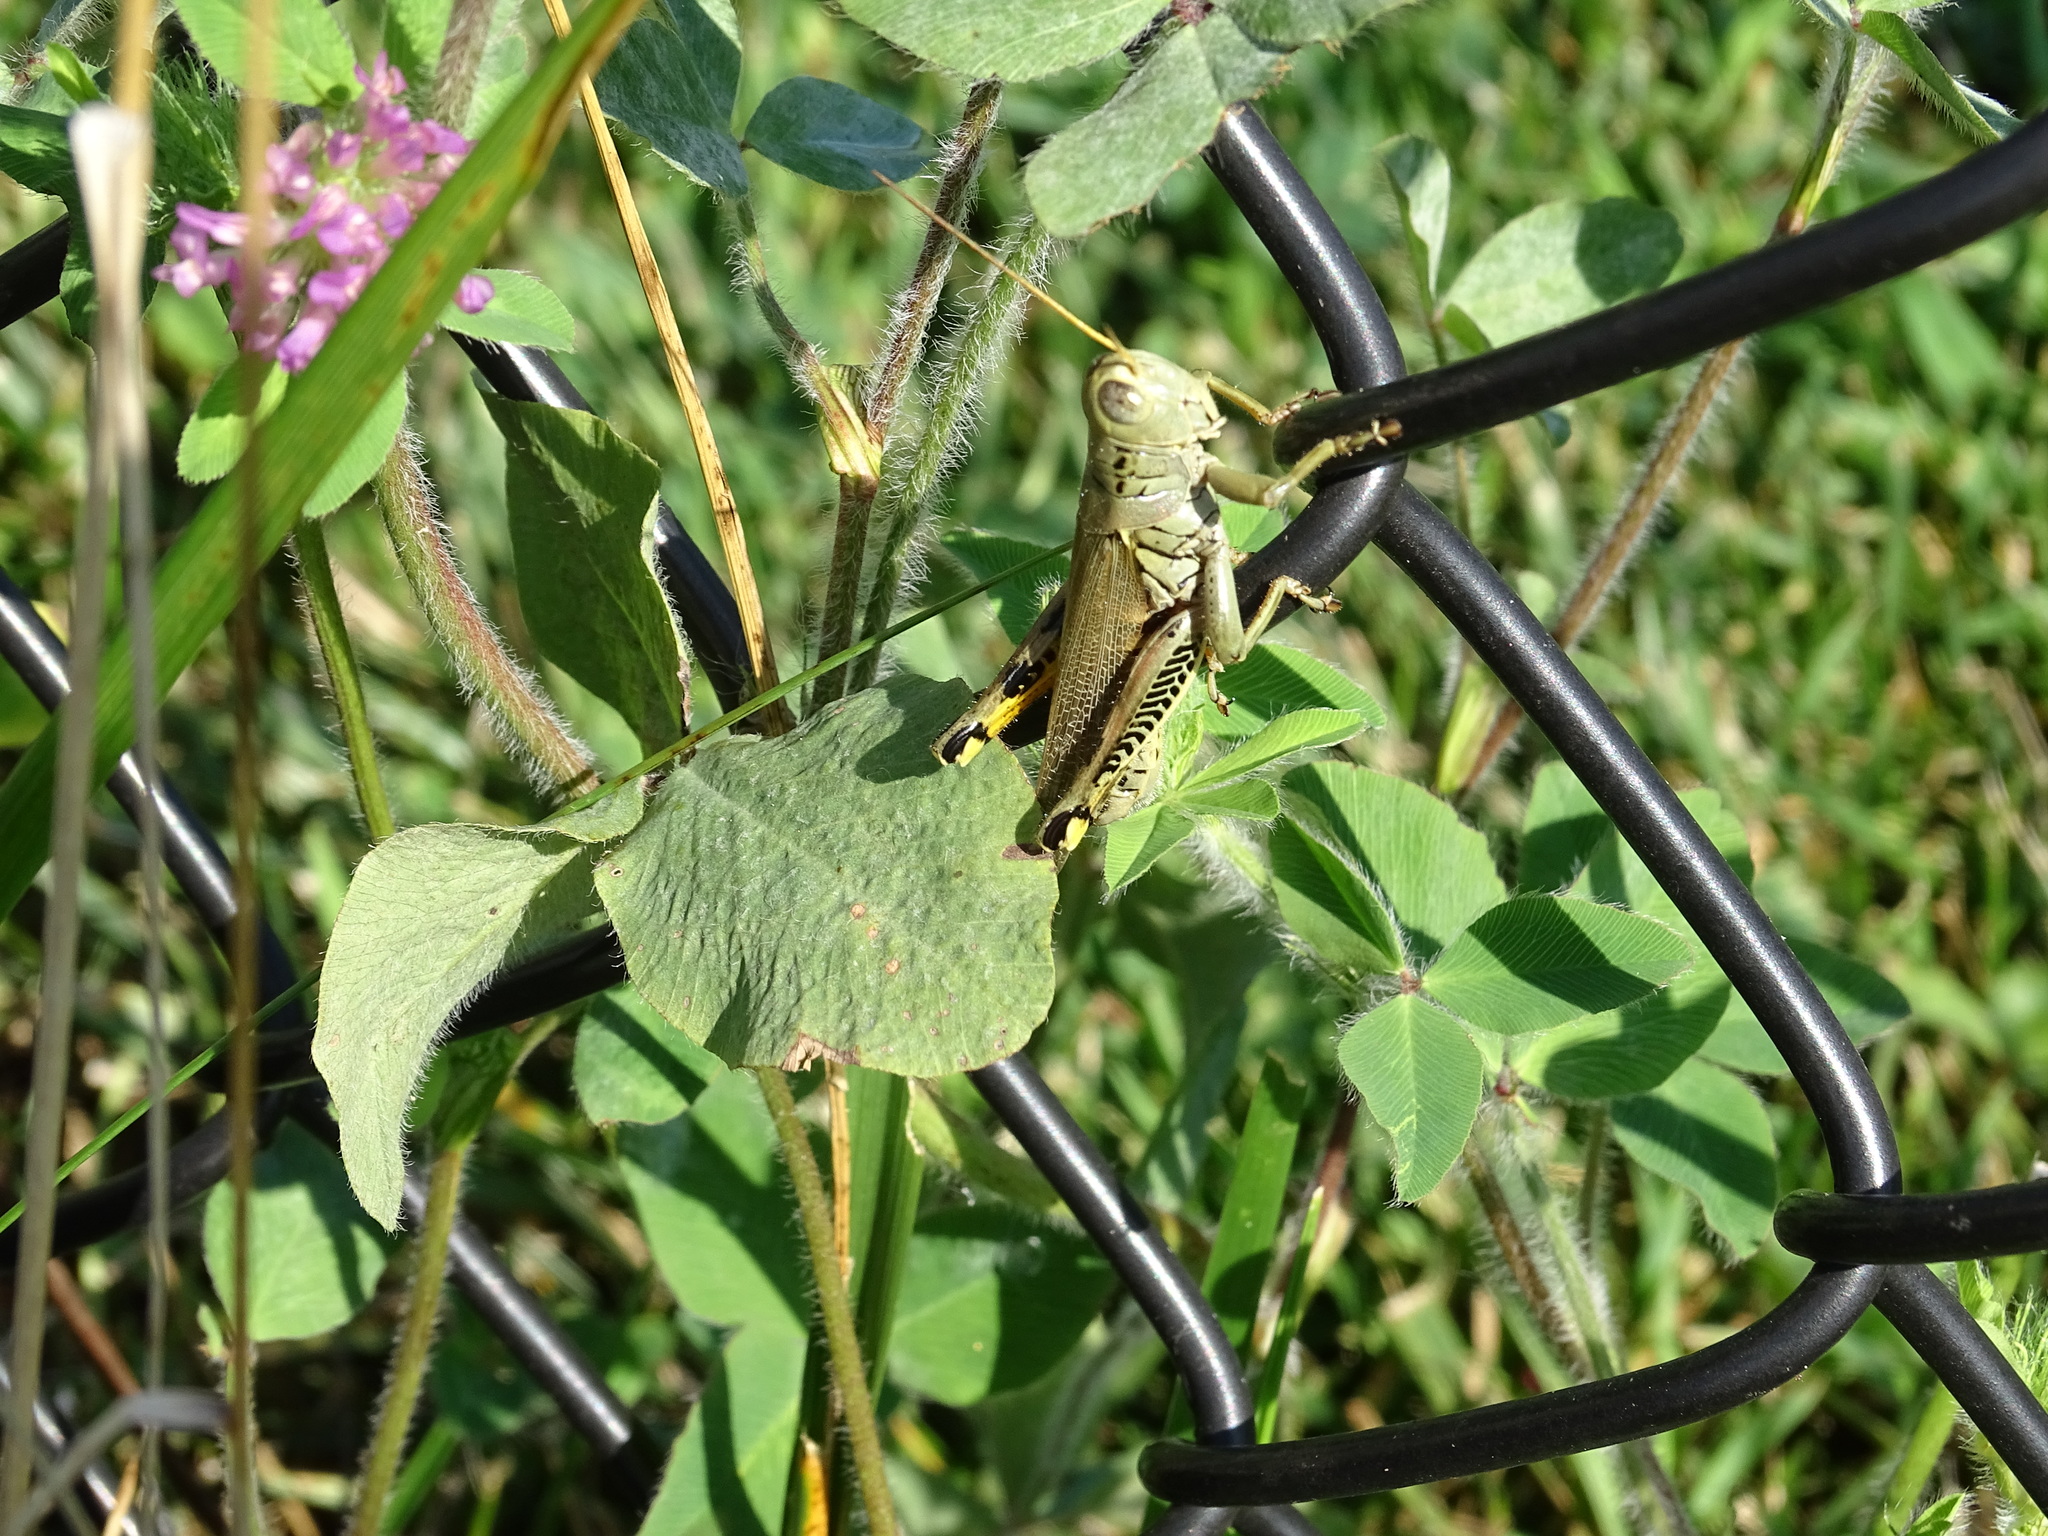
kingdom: Animalia
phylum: Arthropoda
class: Insecta
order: Orthoptera
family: Acrididae
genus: Melanoplus
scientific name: Melanoplus differentialis
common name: Differential grasshopper
